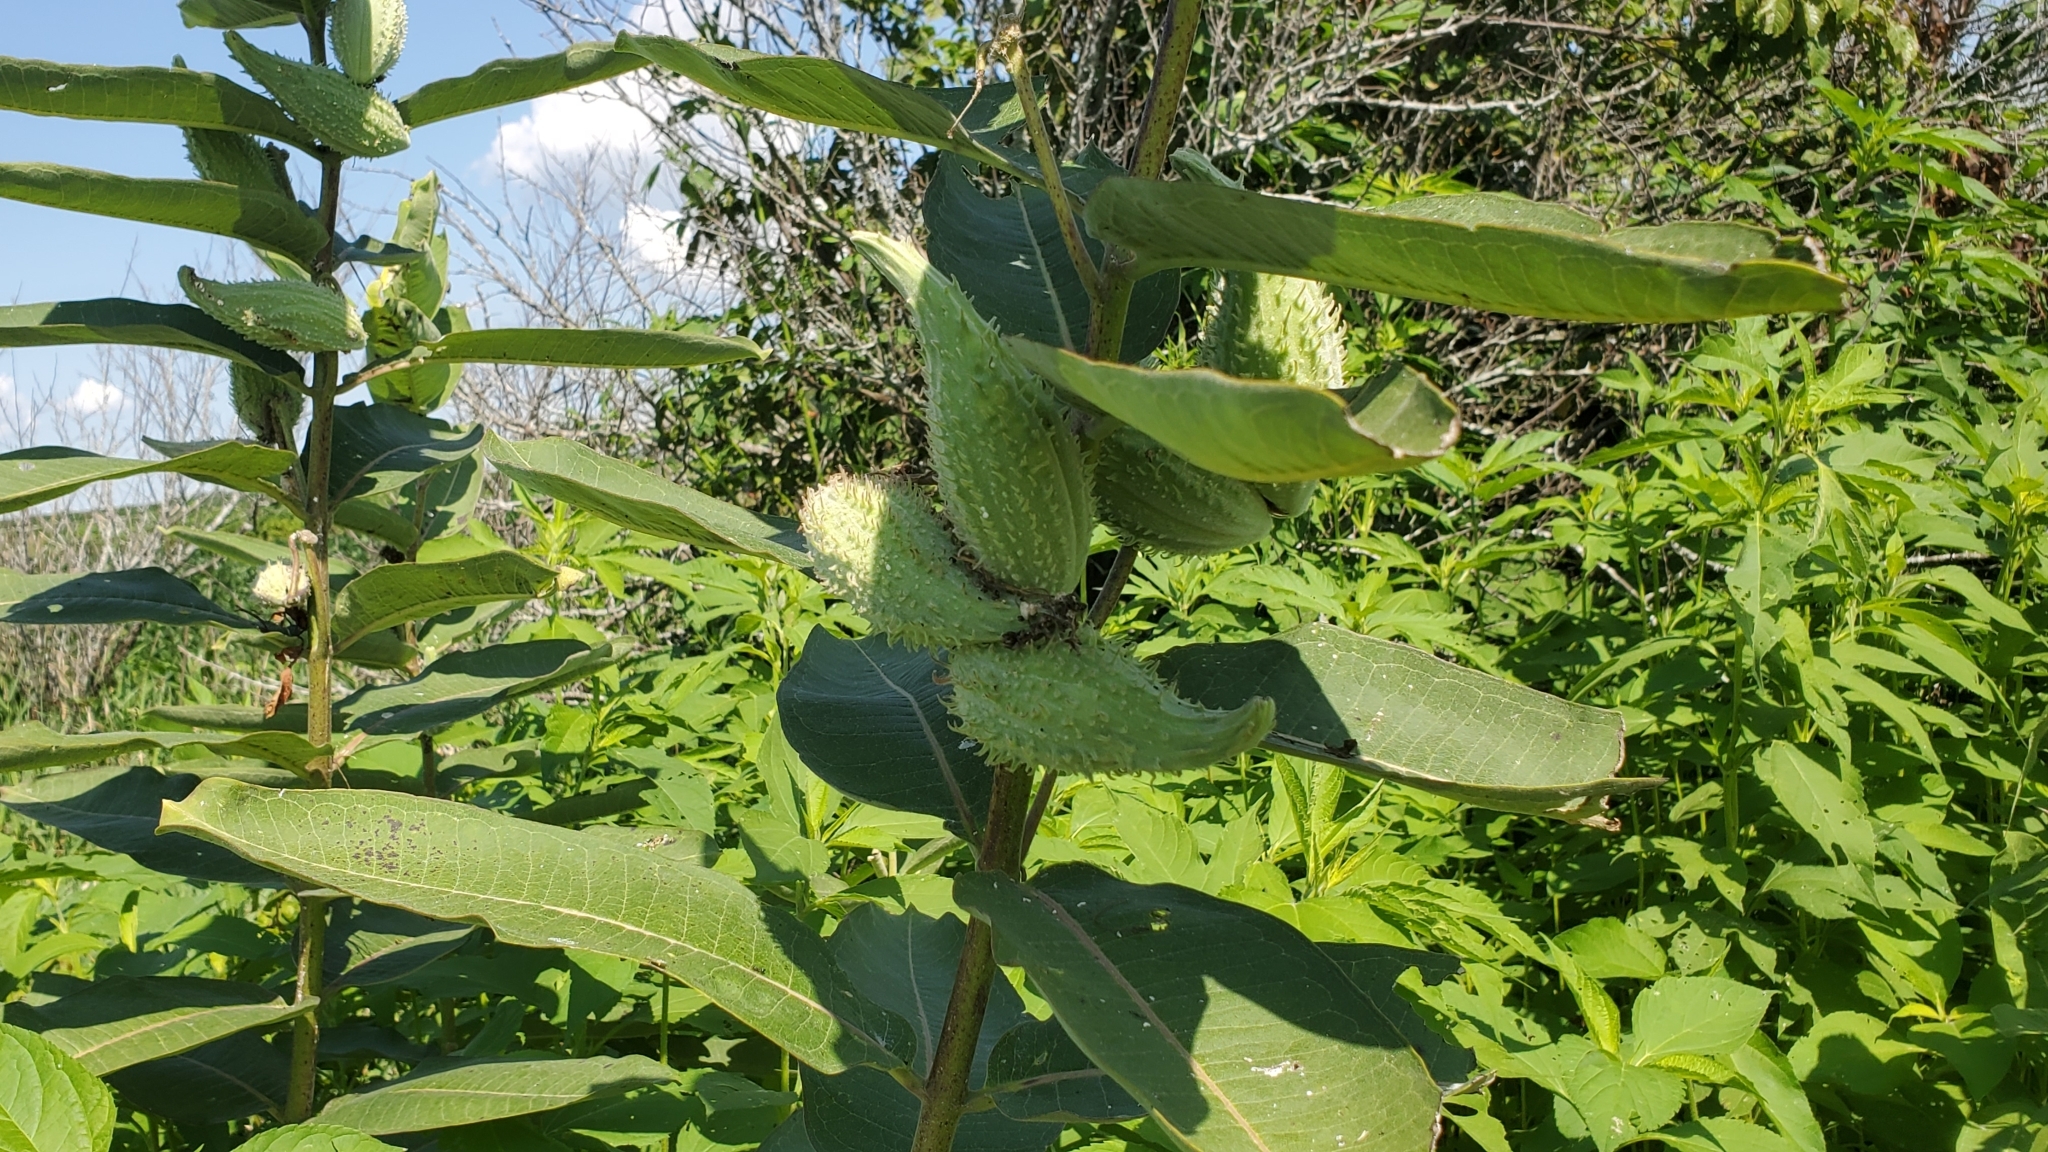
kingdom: Plantae
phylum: Tracheophyta
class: Magnoliopsida
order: Gentianales
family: Apocynaceae
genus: Asclepias
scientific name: Asclepias syriaca
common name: Common milkweed
